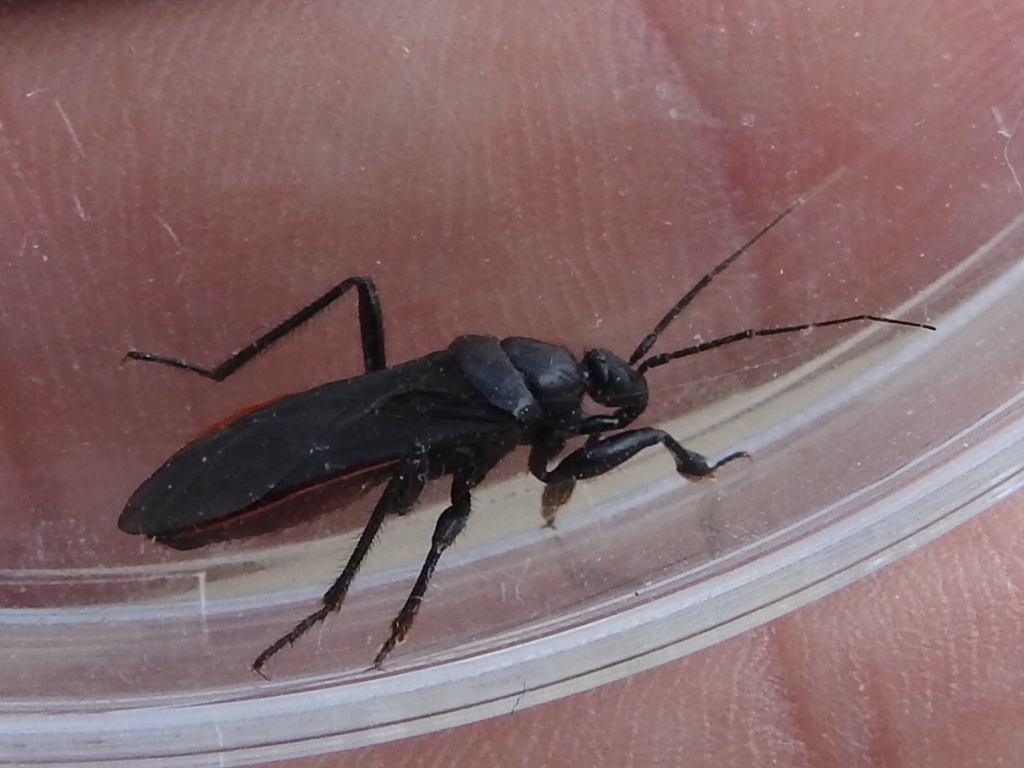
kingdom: Animalia
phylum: Arthropoda
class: Insecta
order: Hemiptera
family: Reduviidae
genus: Melanolestes
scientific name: Melanolestes picipes
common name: Assassin bug
